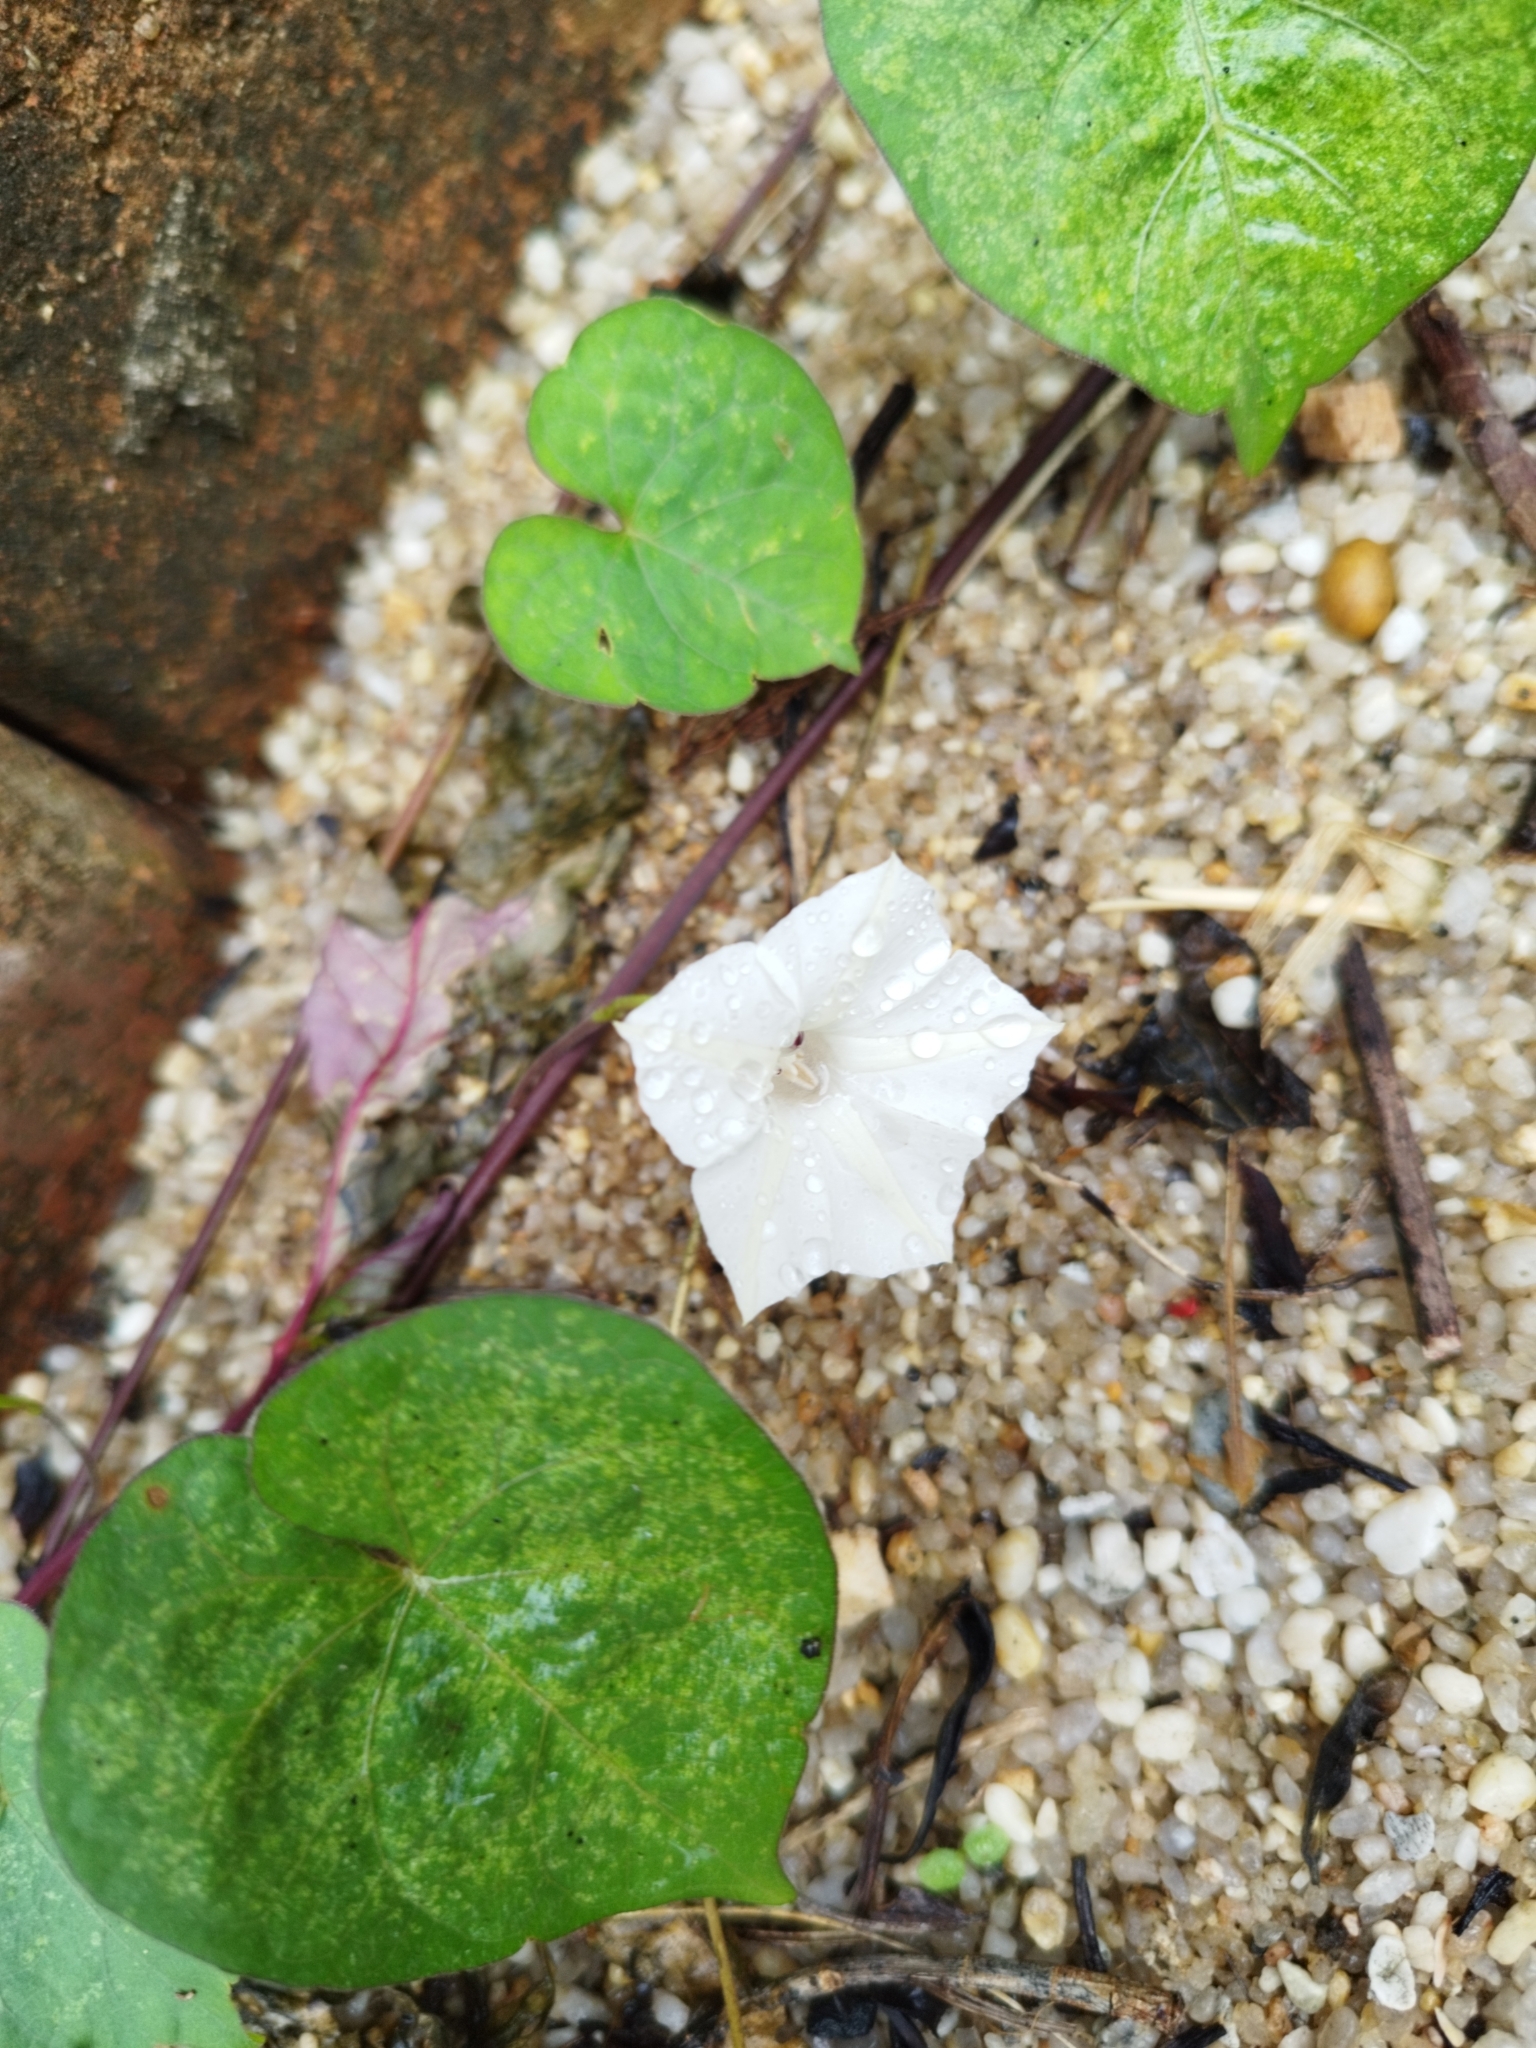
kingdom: Plantae
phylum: Tracheophyta
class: Magnoliopsida
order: Solanales
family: Convolvulaceae
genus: Ipomoea
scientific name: Ipomoea obscura
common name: Obscure morning-glory
